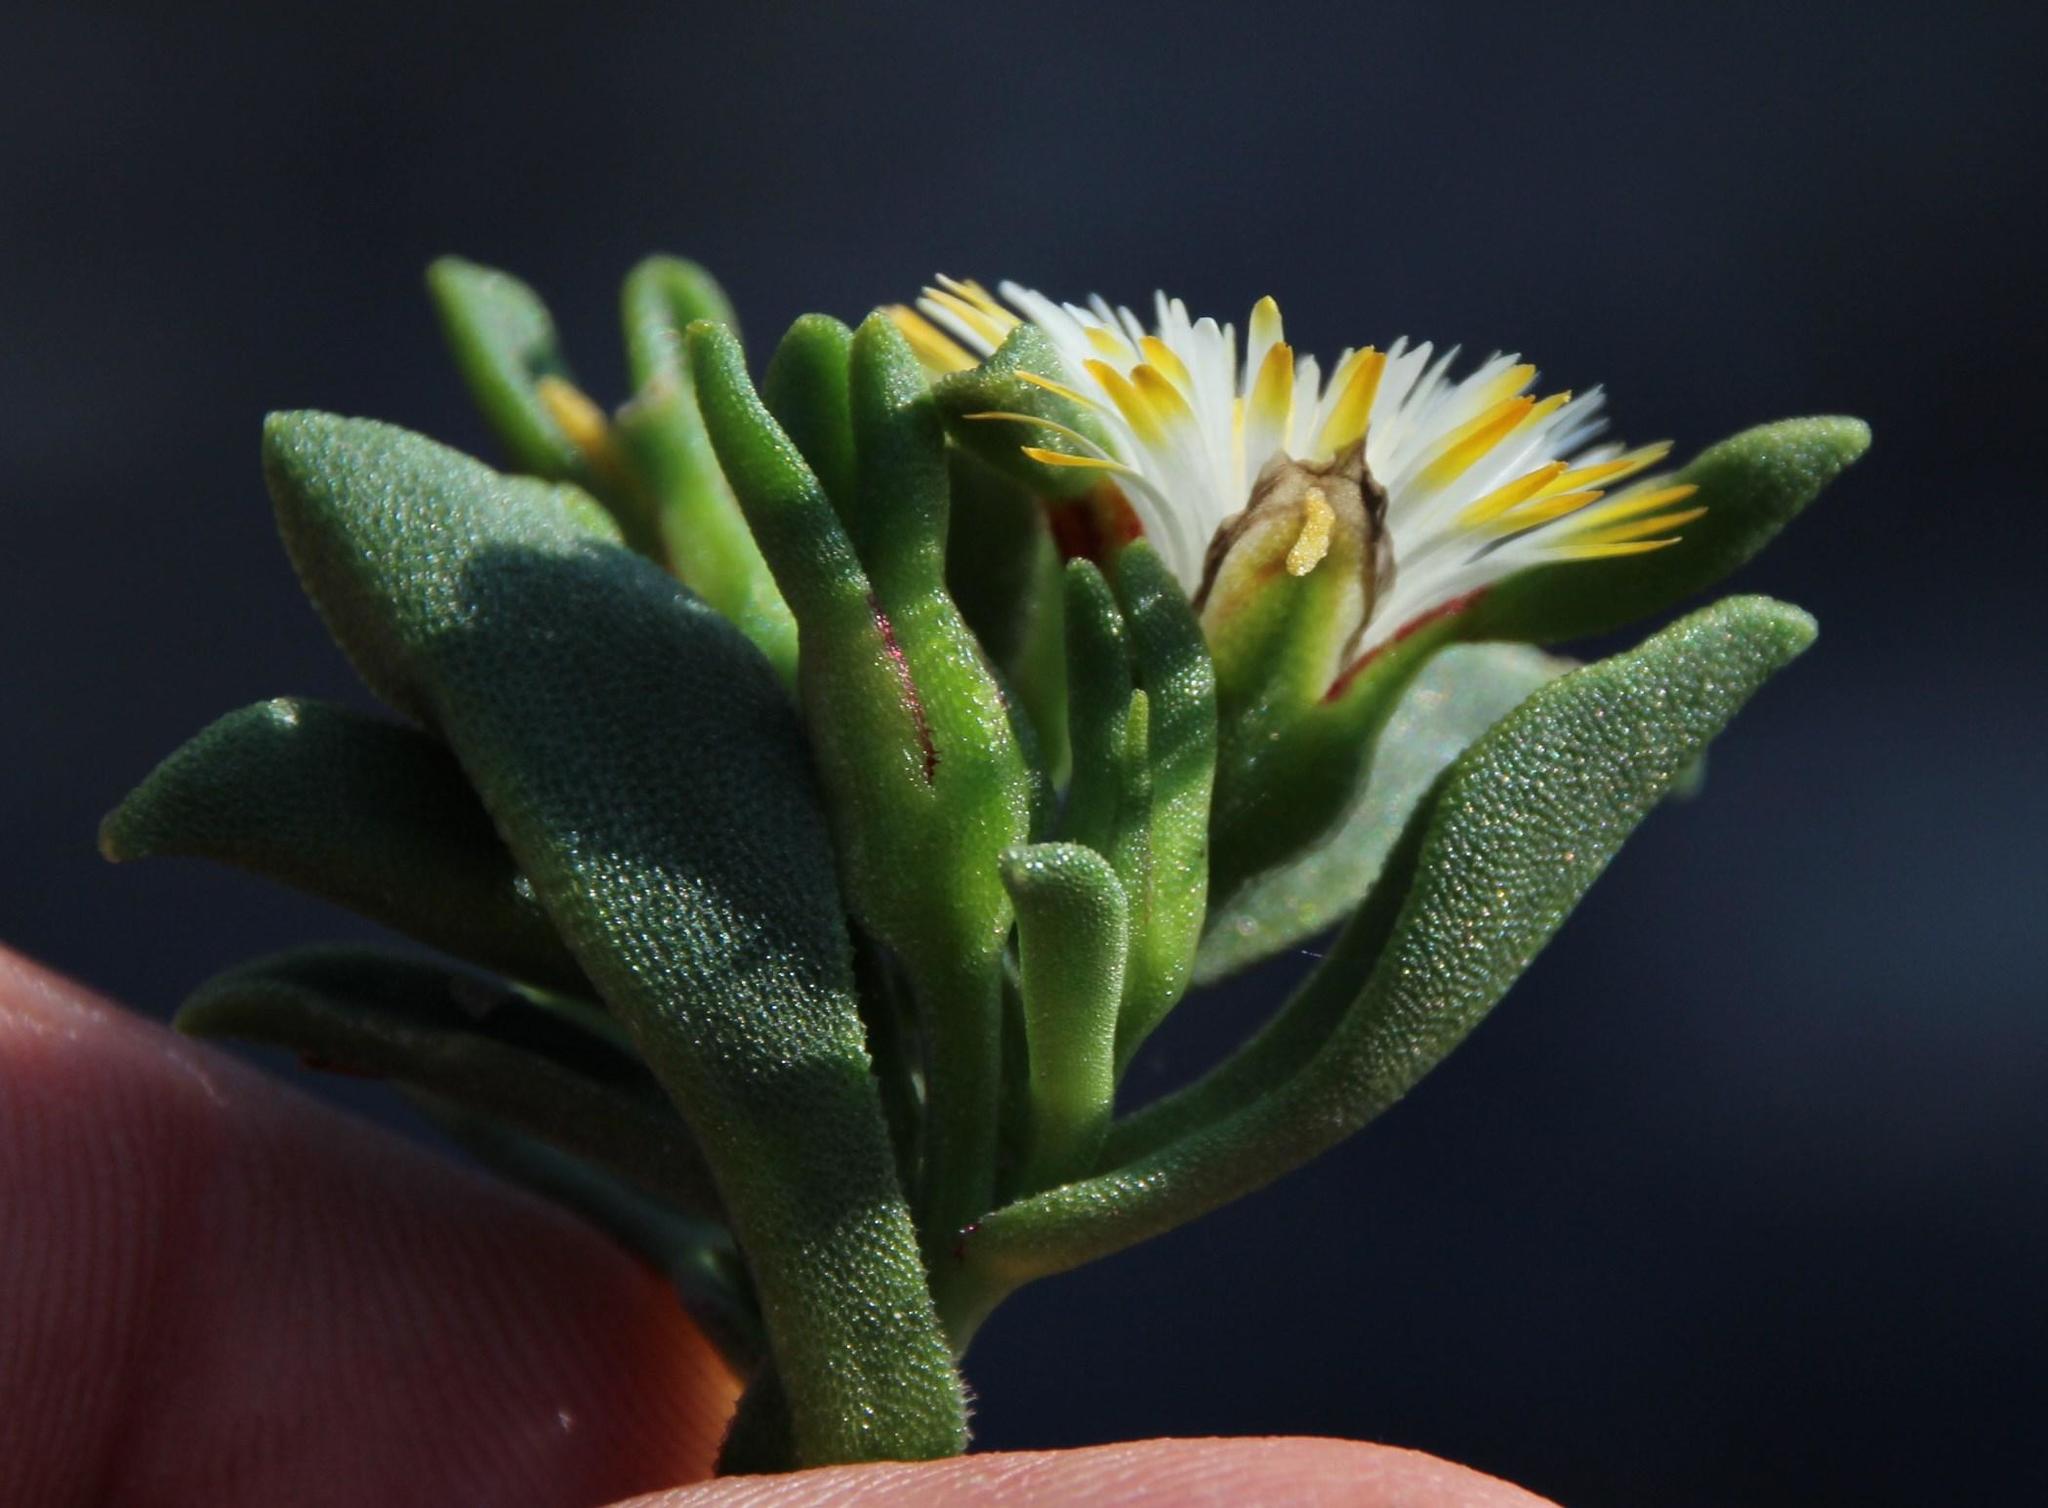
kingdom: Plantae
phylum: Tracheophyta
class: Magnoliopsida
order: Caryophyllales
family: Aizoaceae
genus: Mesembryanthemum
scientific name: Mesembryanthemum aitonis
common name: Angled iceplant
